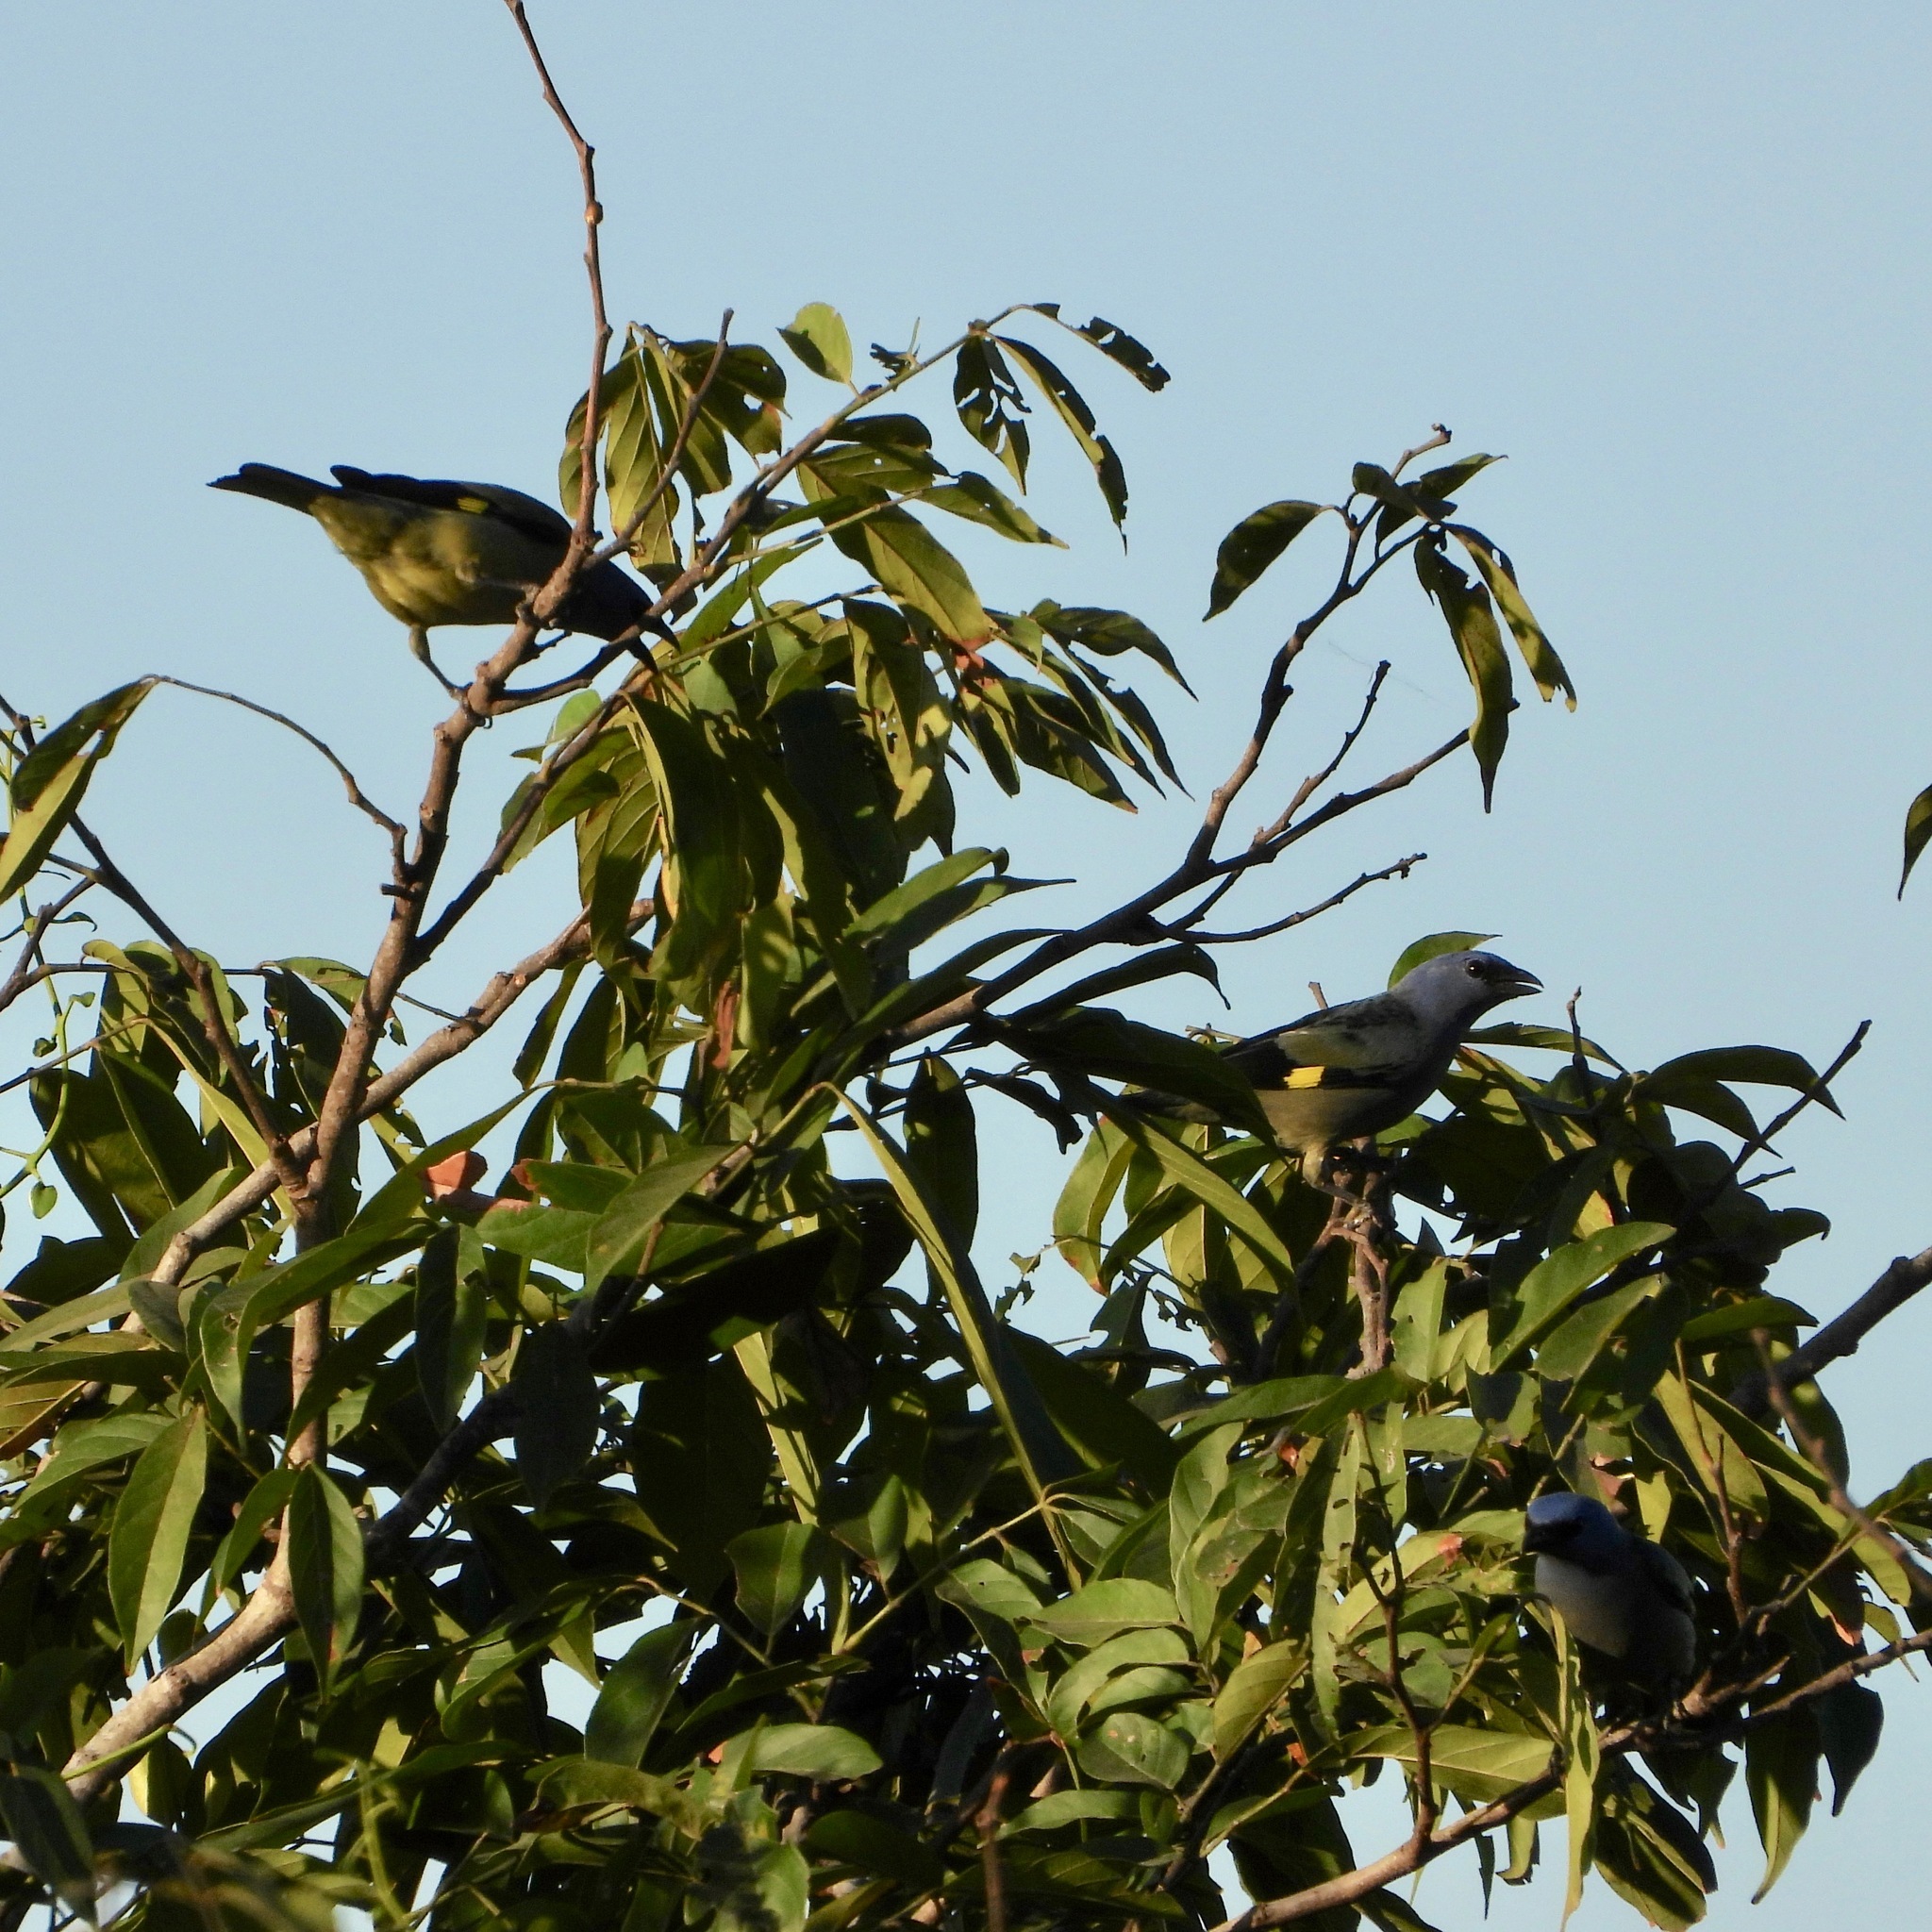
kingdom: Animalia
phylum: Chordata
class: Aves
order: Passeriformes
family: Thraupidae
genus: Thraupis
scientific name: Thraupis abbas
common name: Yellow-winged tanager
